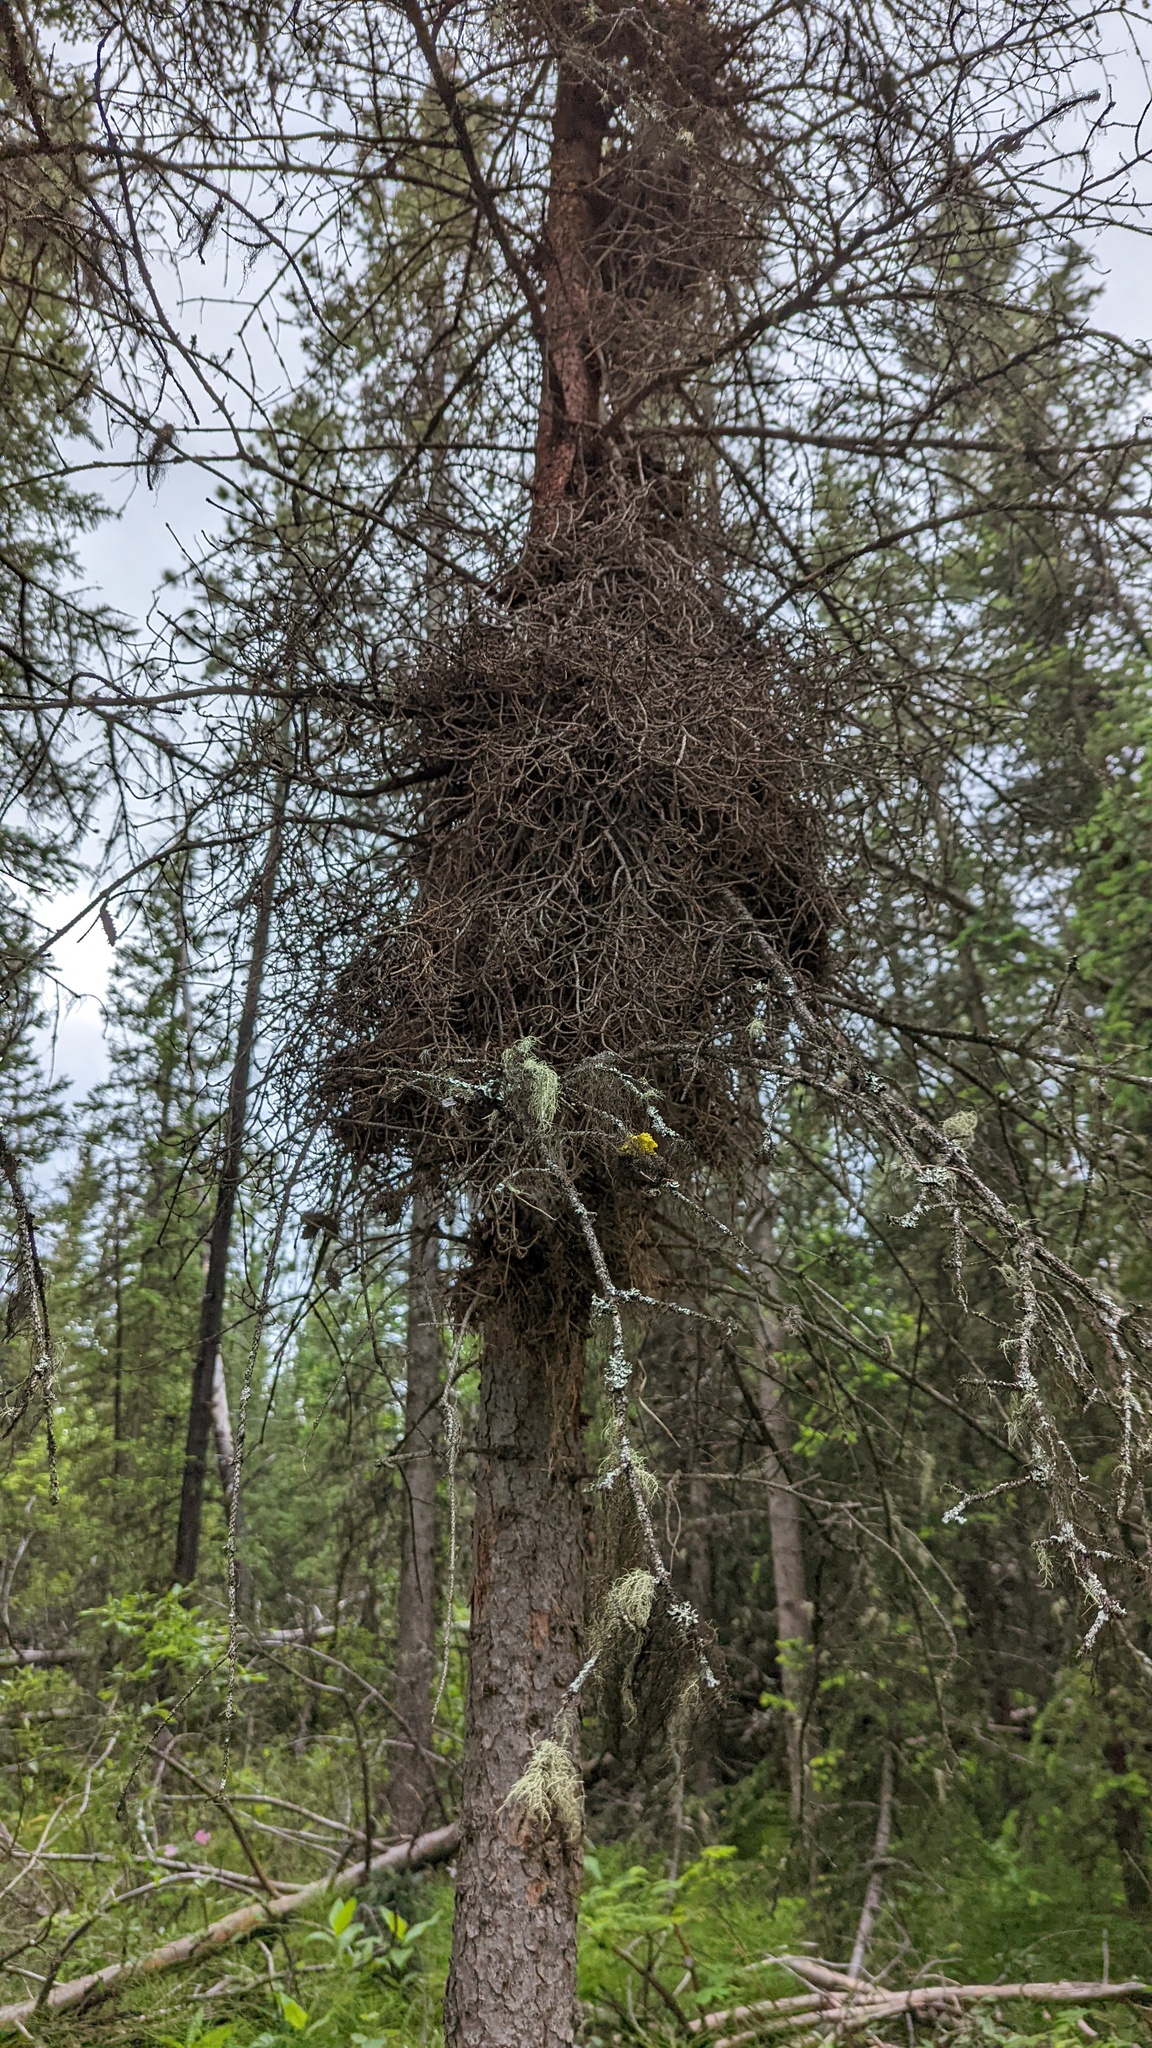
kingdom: Fungi
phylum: Basidiomycota
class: Pucciniomycetes
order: Pucciniales
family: Coleosporiaceae
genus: Chrysomyxa
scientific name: Chrysomyxa arctostaphyli
